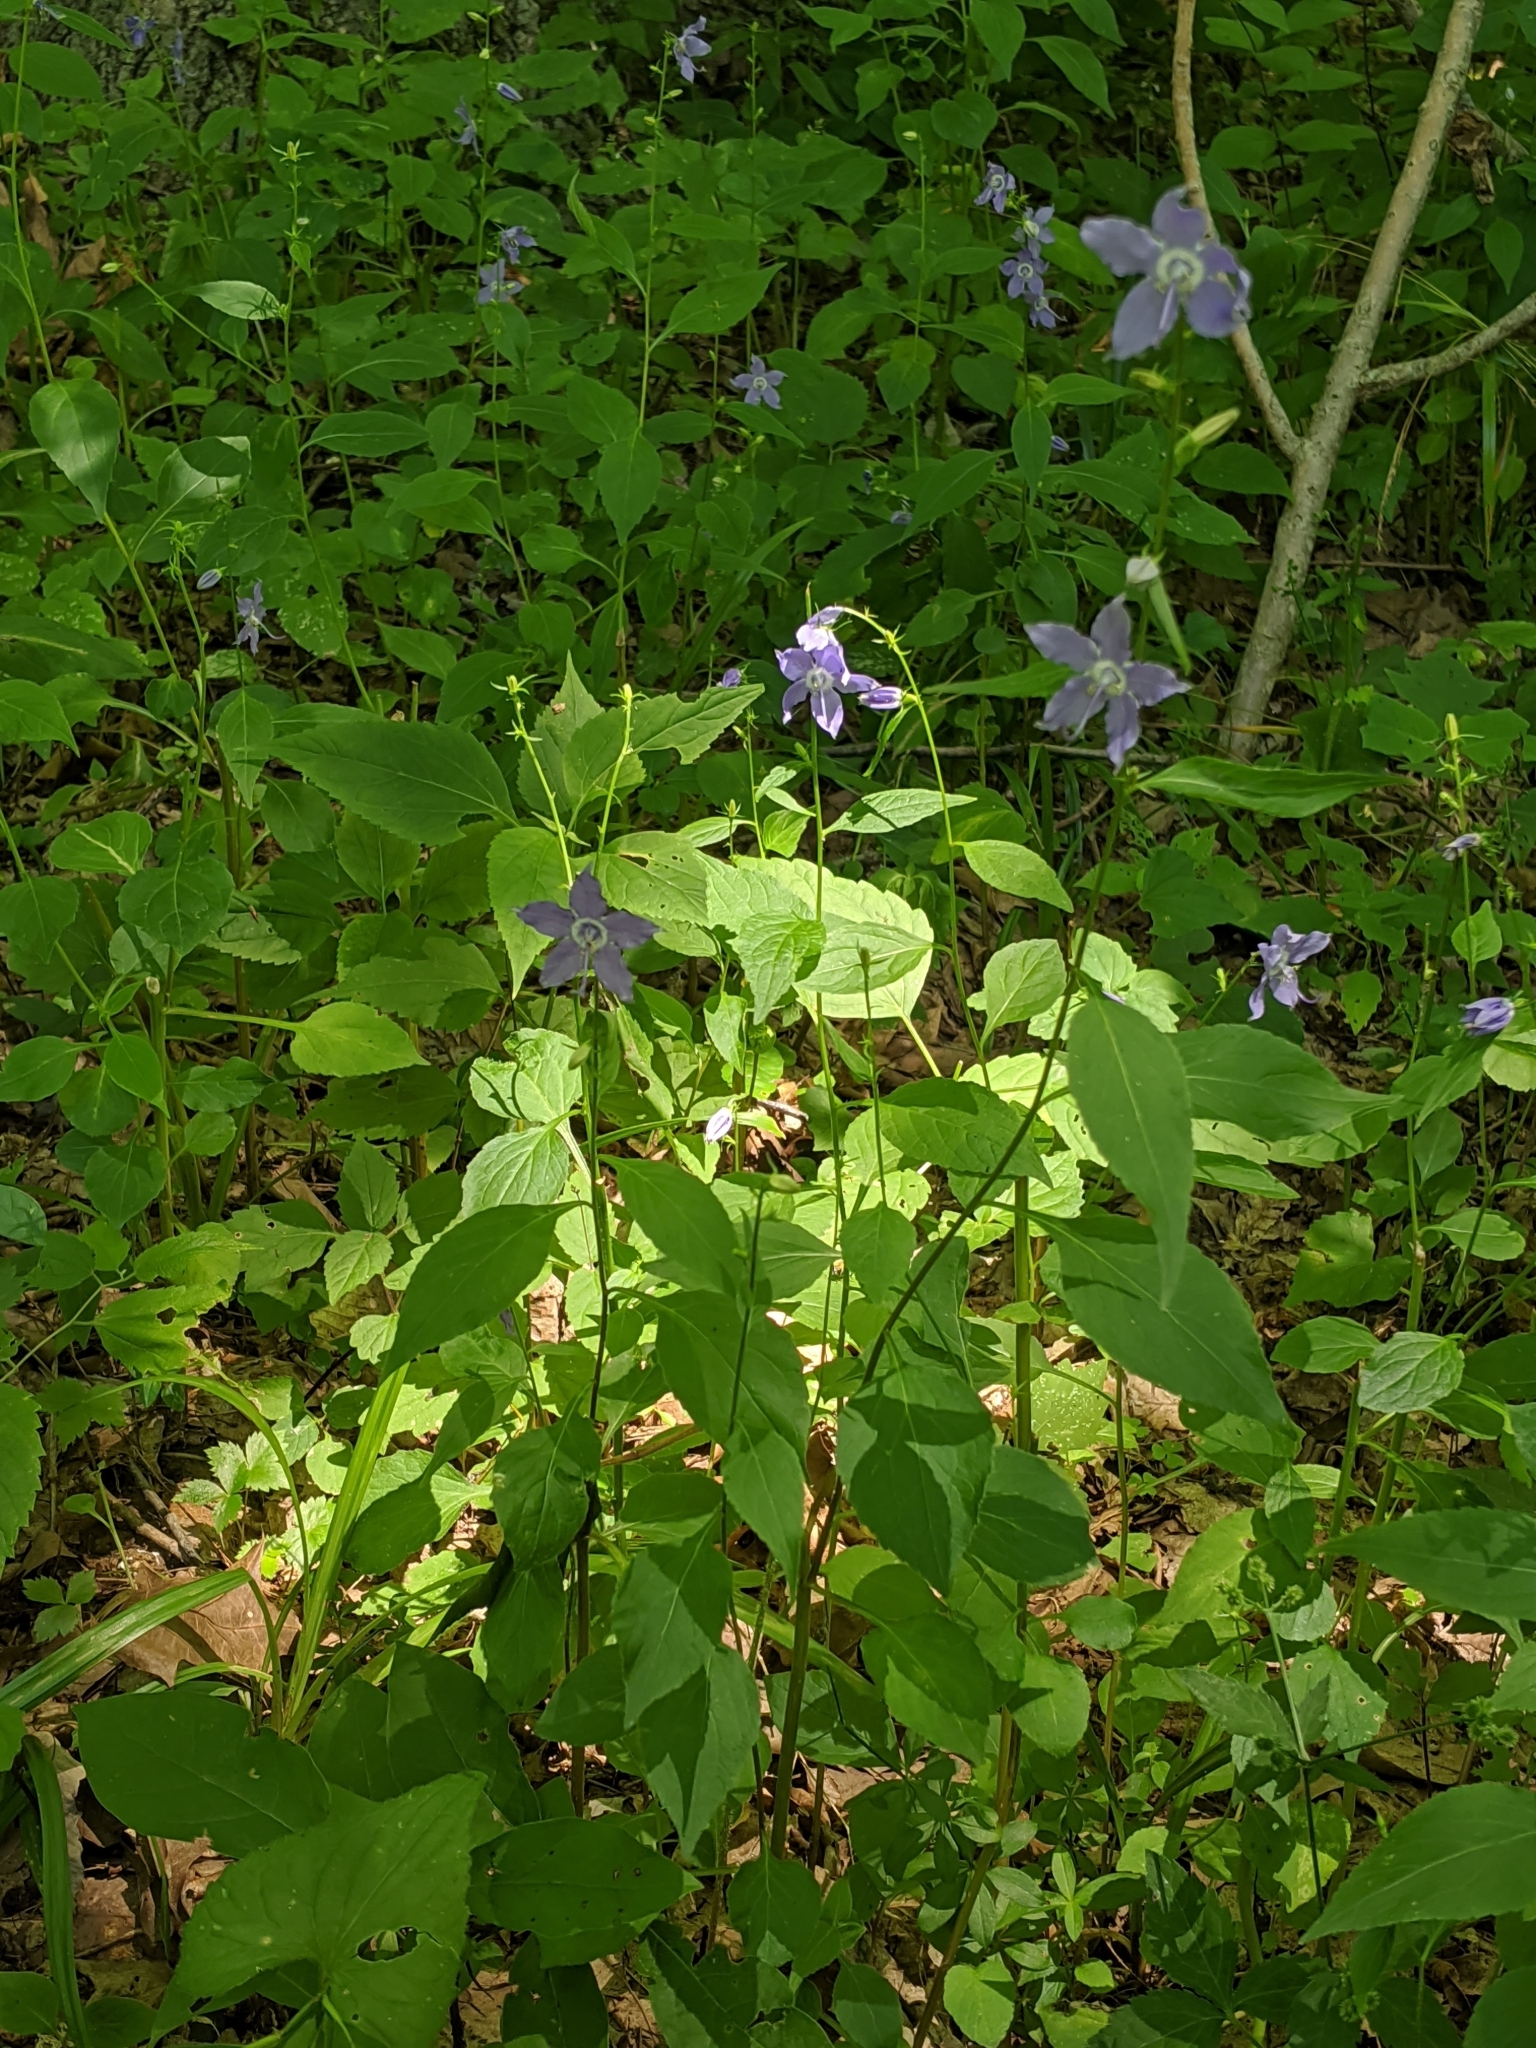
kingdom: Plantae
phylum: Tracheophyta
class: Magnoliopsida
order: Asterales
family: Campanulaceae
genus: Campanulastrum
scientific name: Campanulastrum americanum
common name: American bellflower
